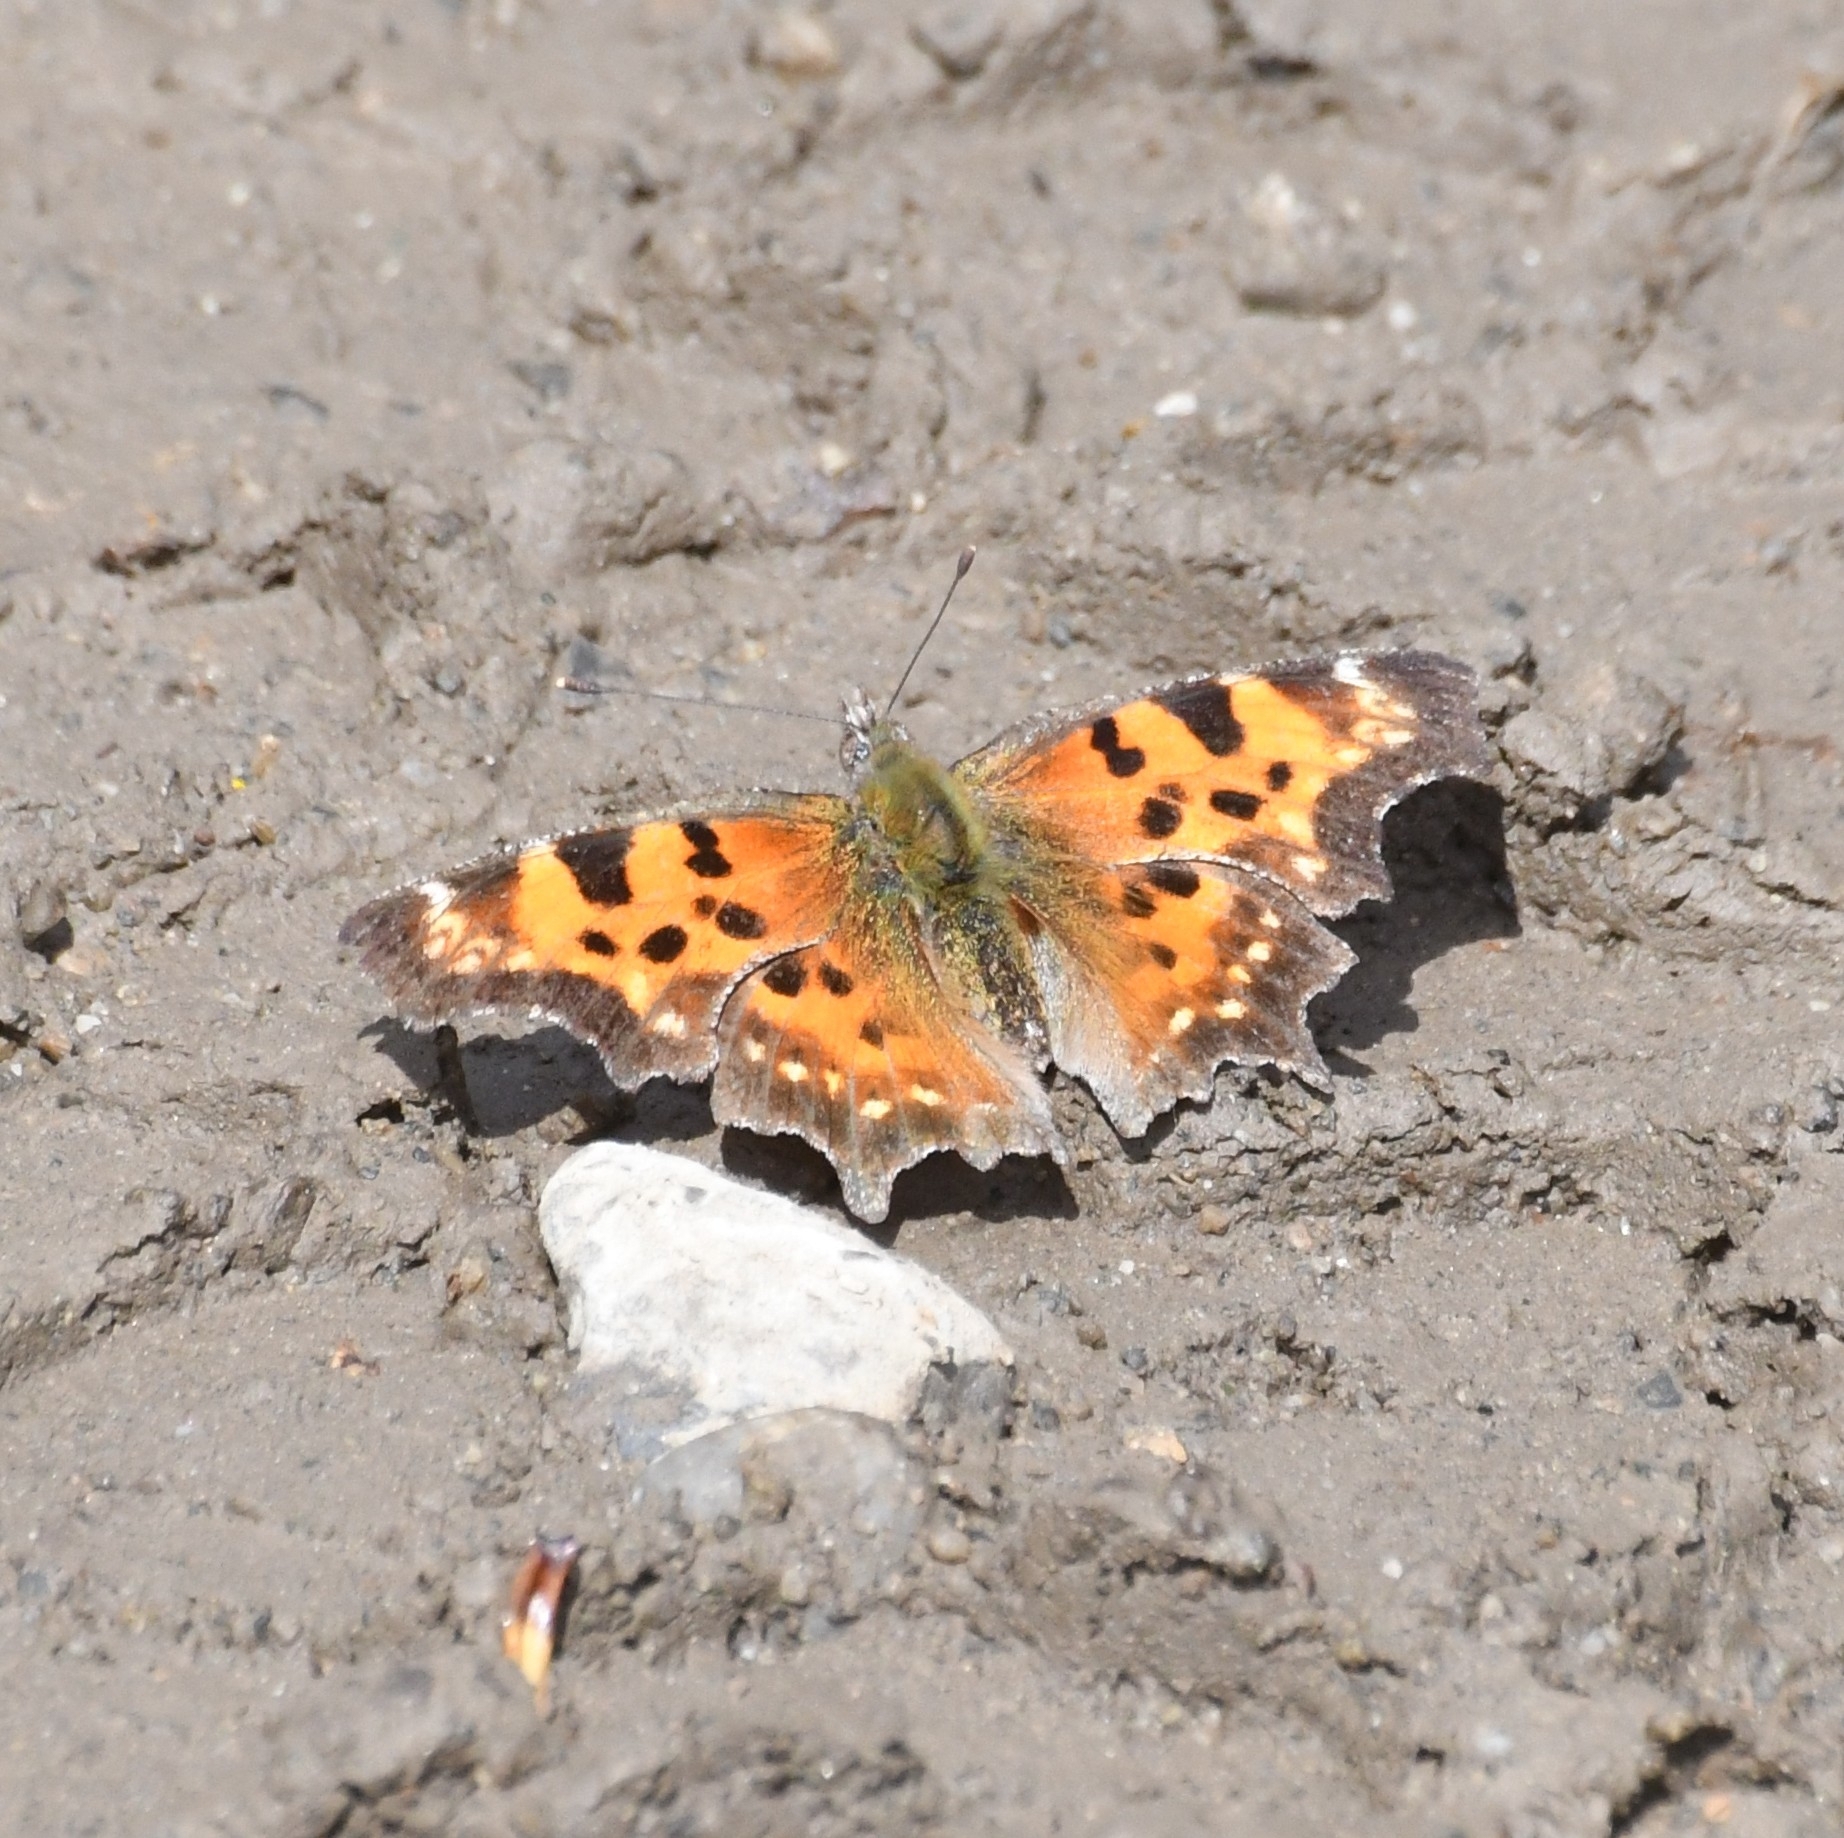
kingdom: Animalia
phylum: Arthropoda
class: Insecta
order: Lepidoptera
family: Nymphalidae
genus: Polygonia
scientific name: Polygonia faunus
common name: Green comma
